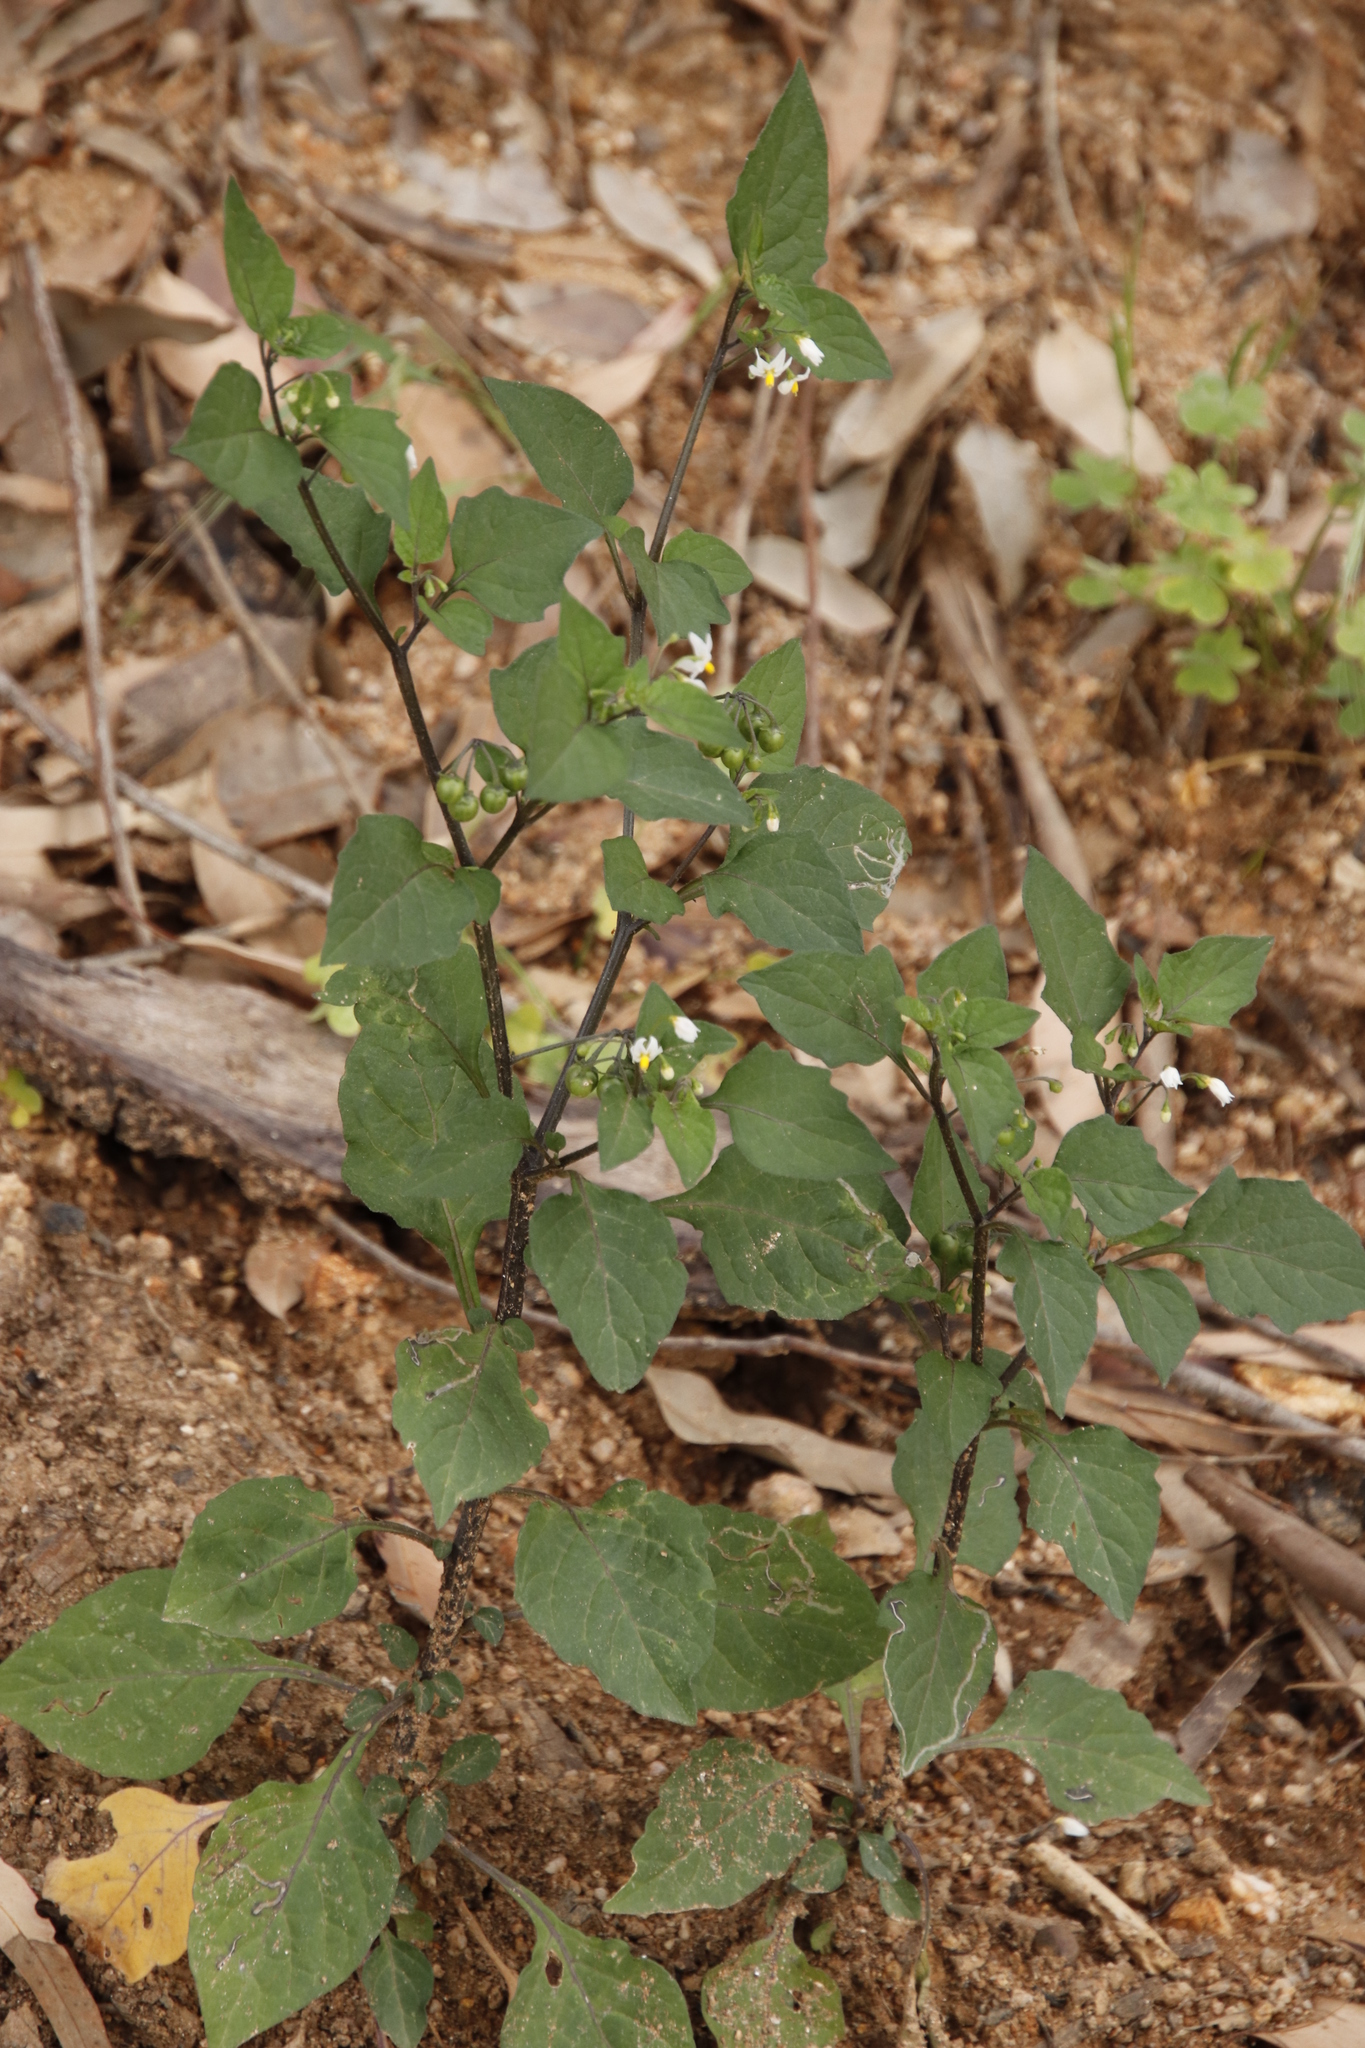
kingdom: Plantae
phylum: Tracheophyta
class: Magnoliopsida
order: Solanales
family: Solanaceae
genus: Solanum
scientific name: Solanum nigrum
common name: Black nightshade
